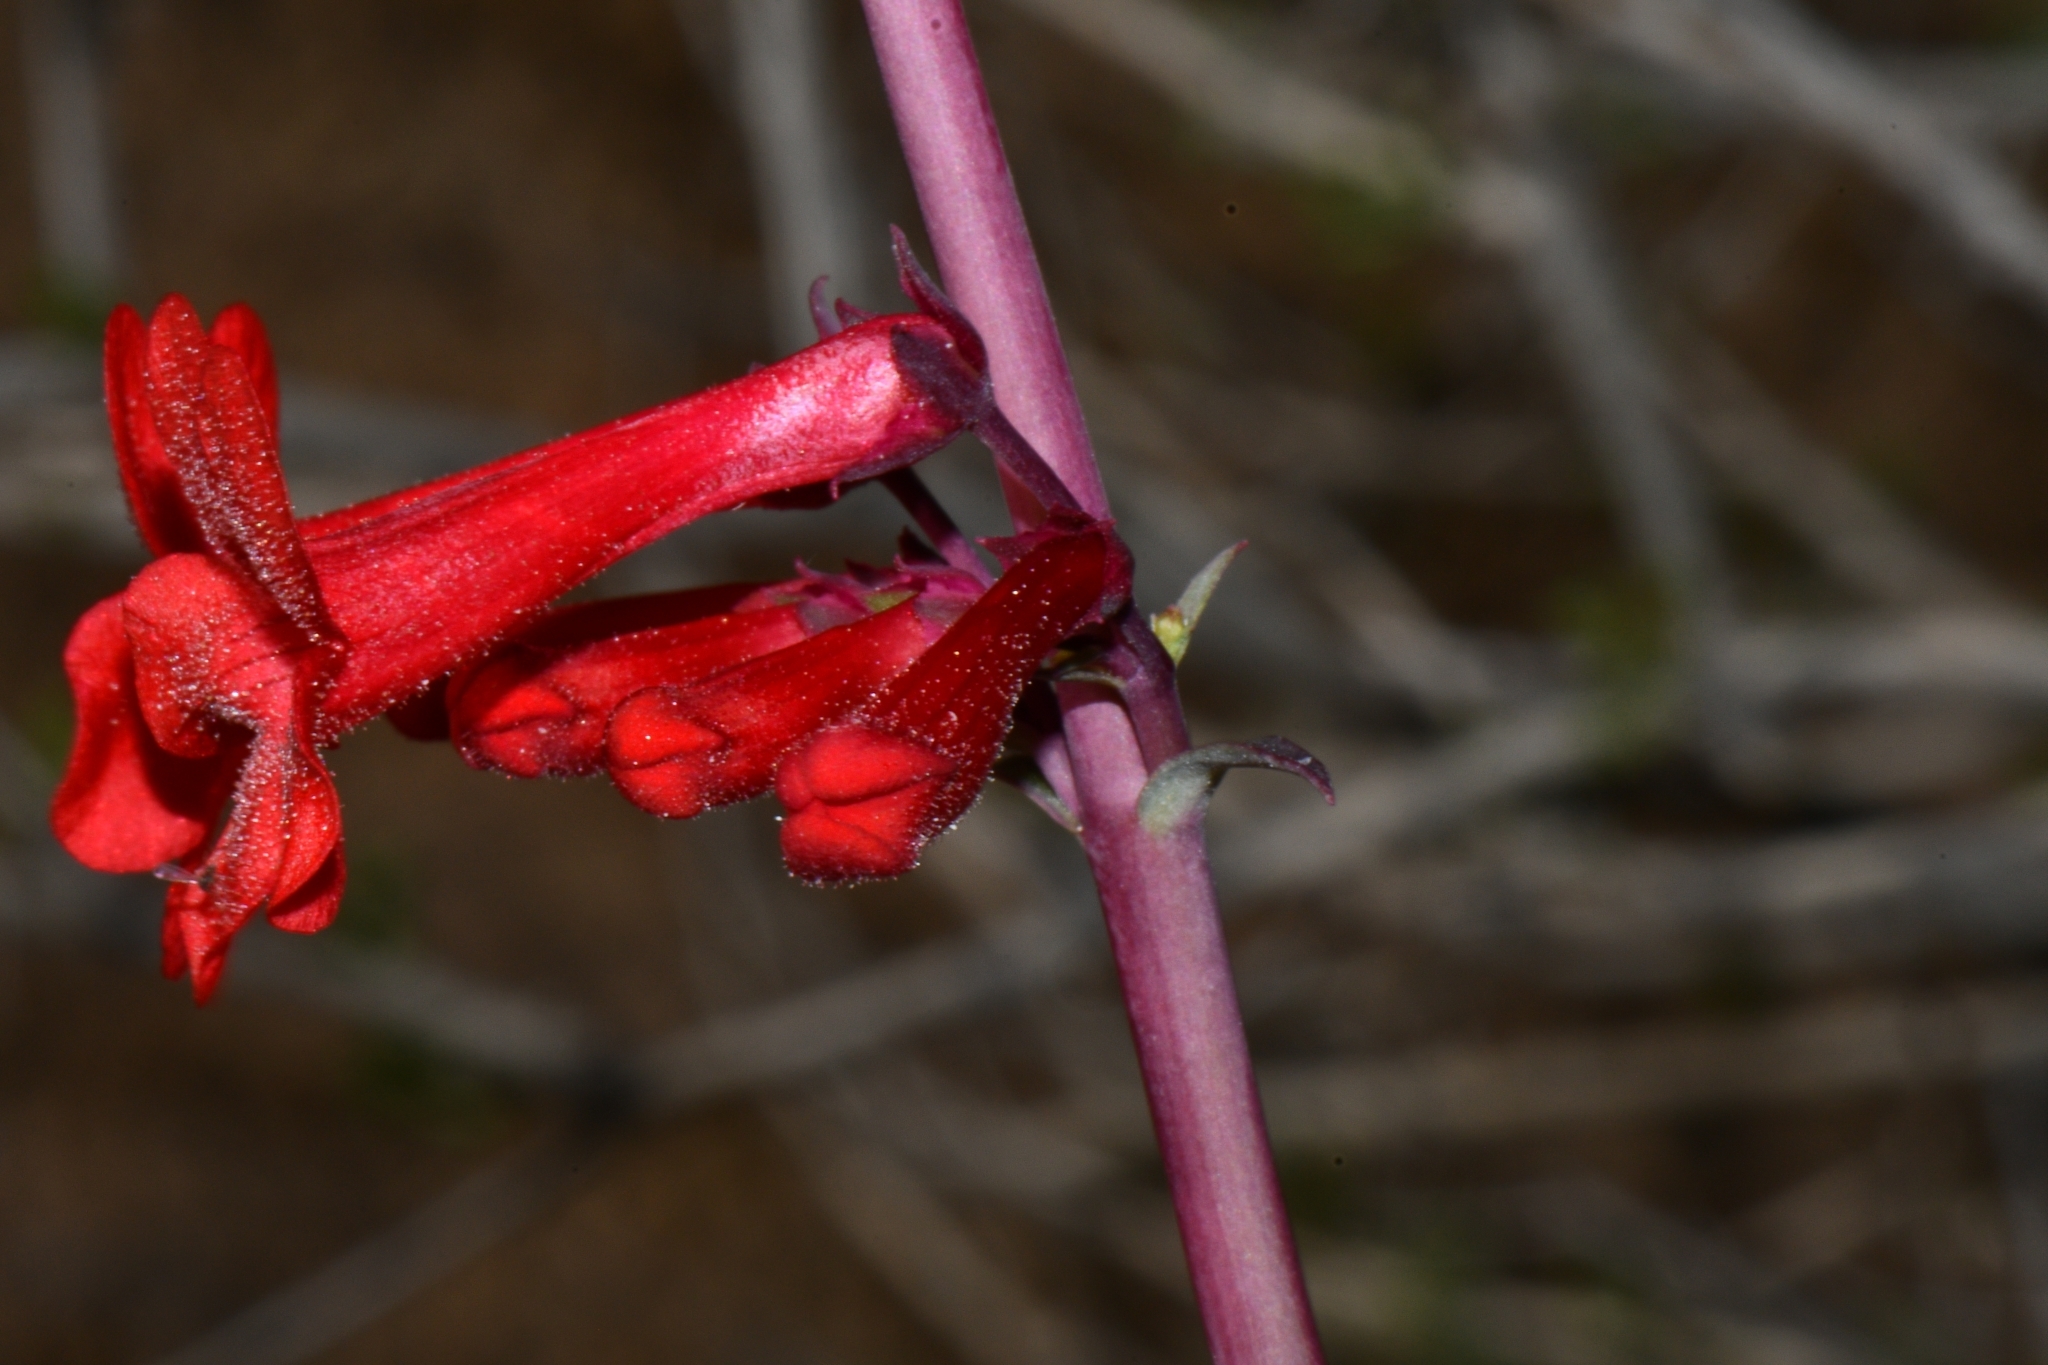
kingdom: Plantae
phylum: Tracheophyta
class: Magnoliopsida
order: Lamiales
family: Plantaginaceae
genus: Penstemon
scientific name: Penstemon utahensis
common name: Utah penstemon
